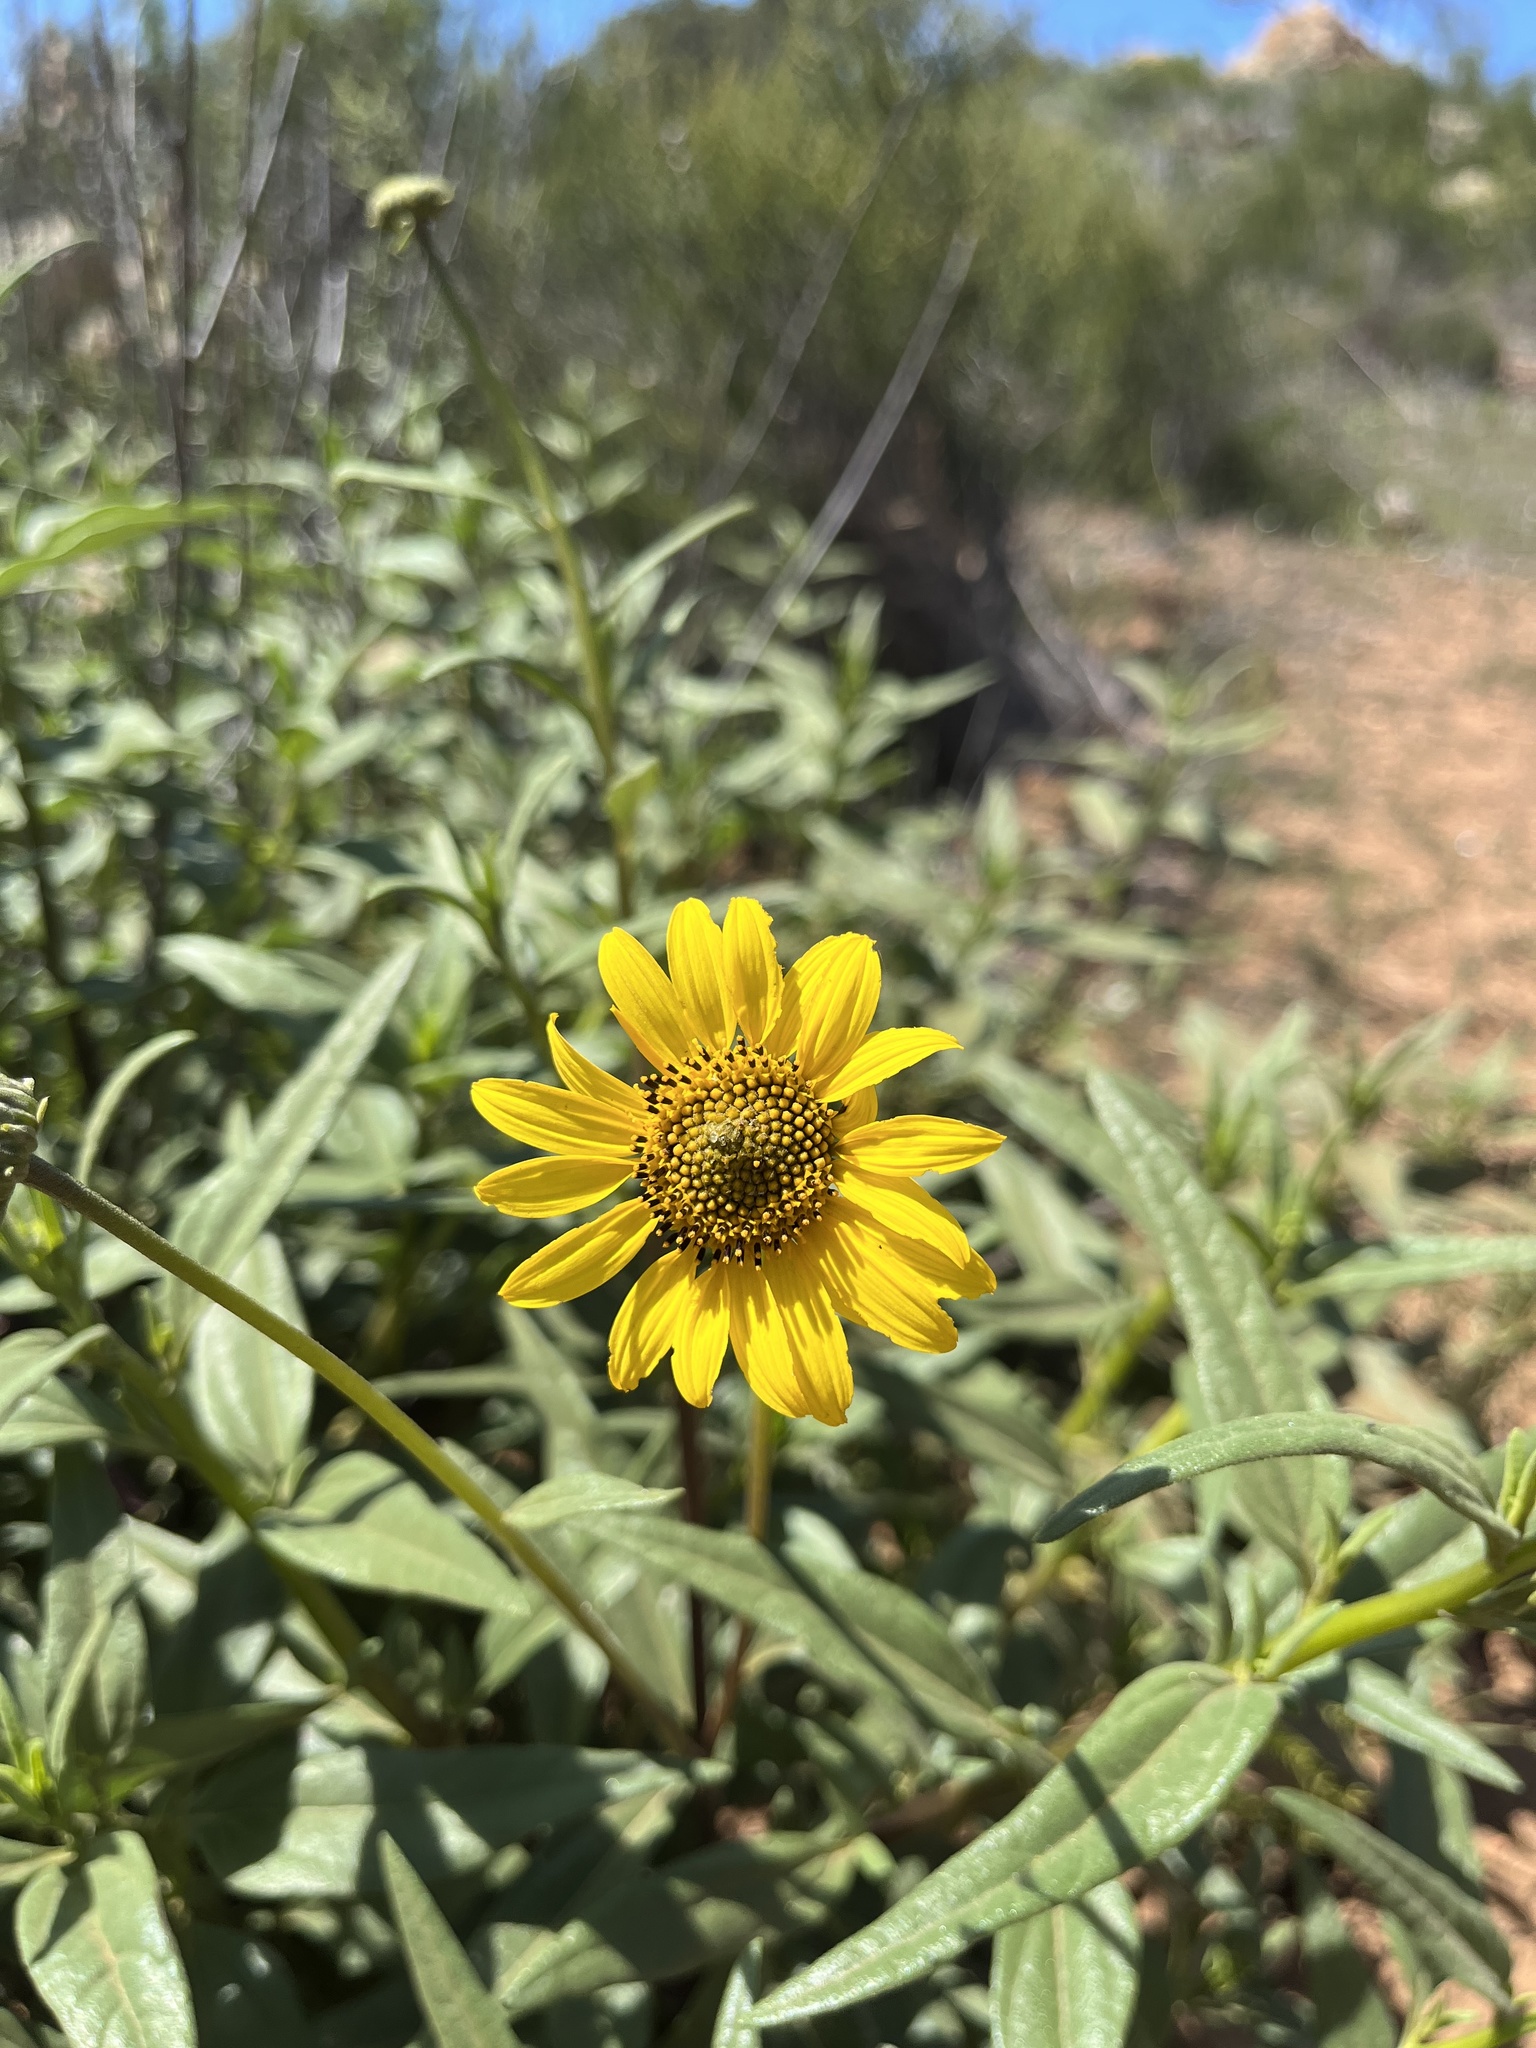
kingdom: Plantae
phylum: Tracheophyta
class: Magnoliopsida
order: Asterales
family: Asteraceae
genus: Helianthus
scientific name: Helianthus gracilentus
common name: Slender sunflower
